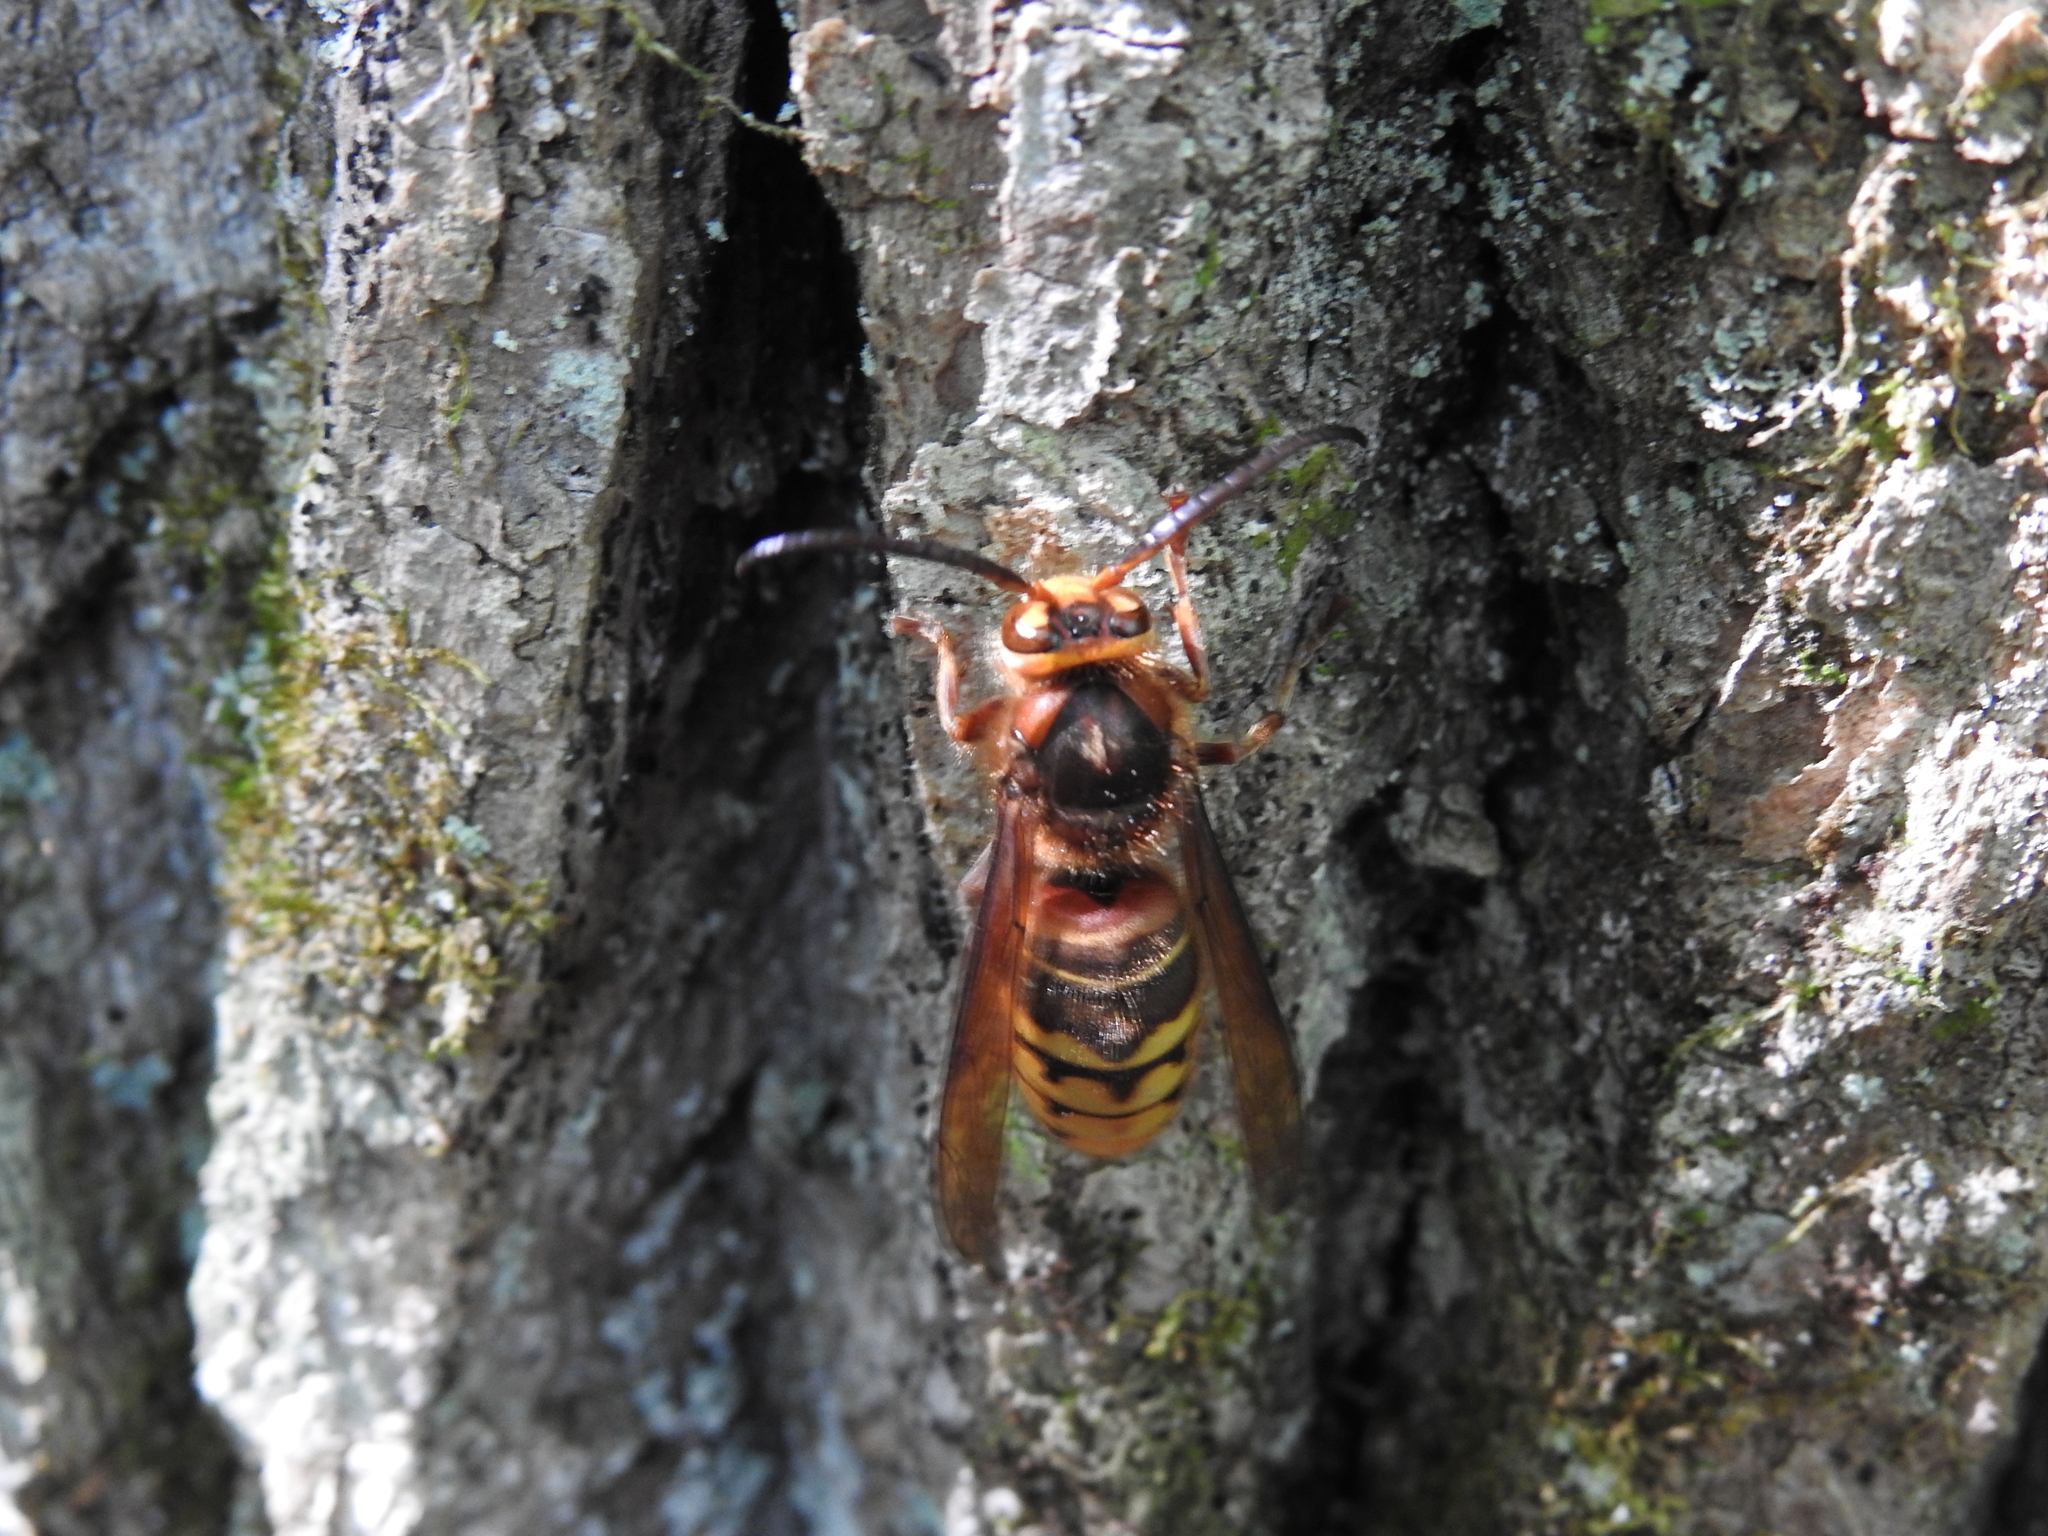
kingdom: Animalia
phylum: Arthropoda
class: Insecta
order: Hymenoptera
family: Vespidae
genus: Vespa
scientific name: Vespa crabro
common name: Hornet
